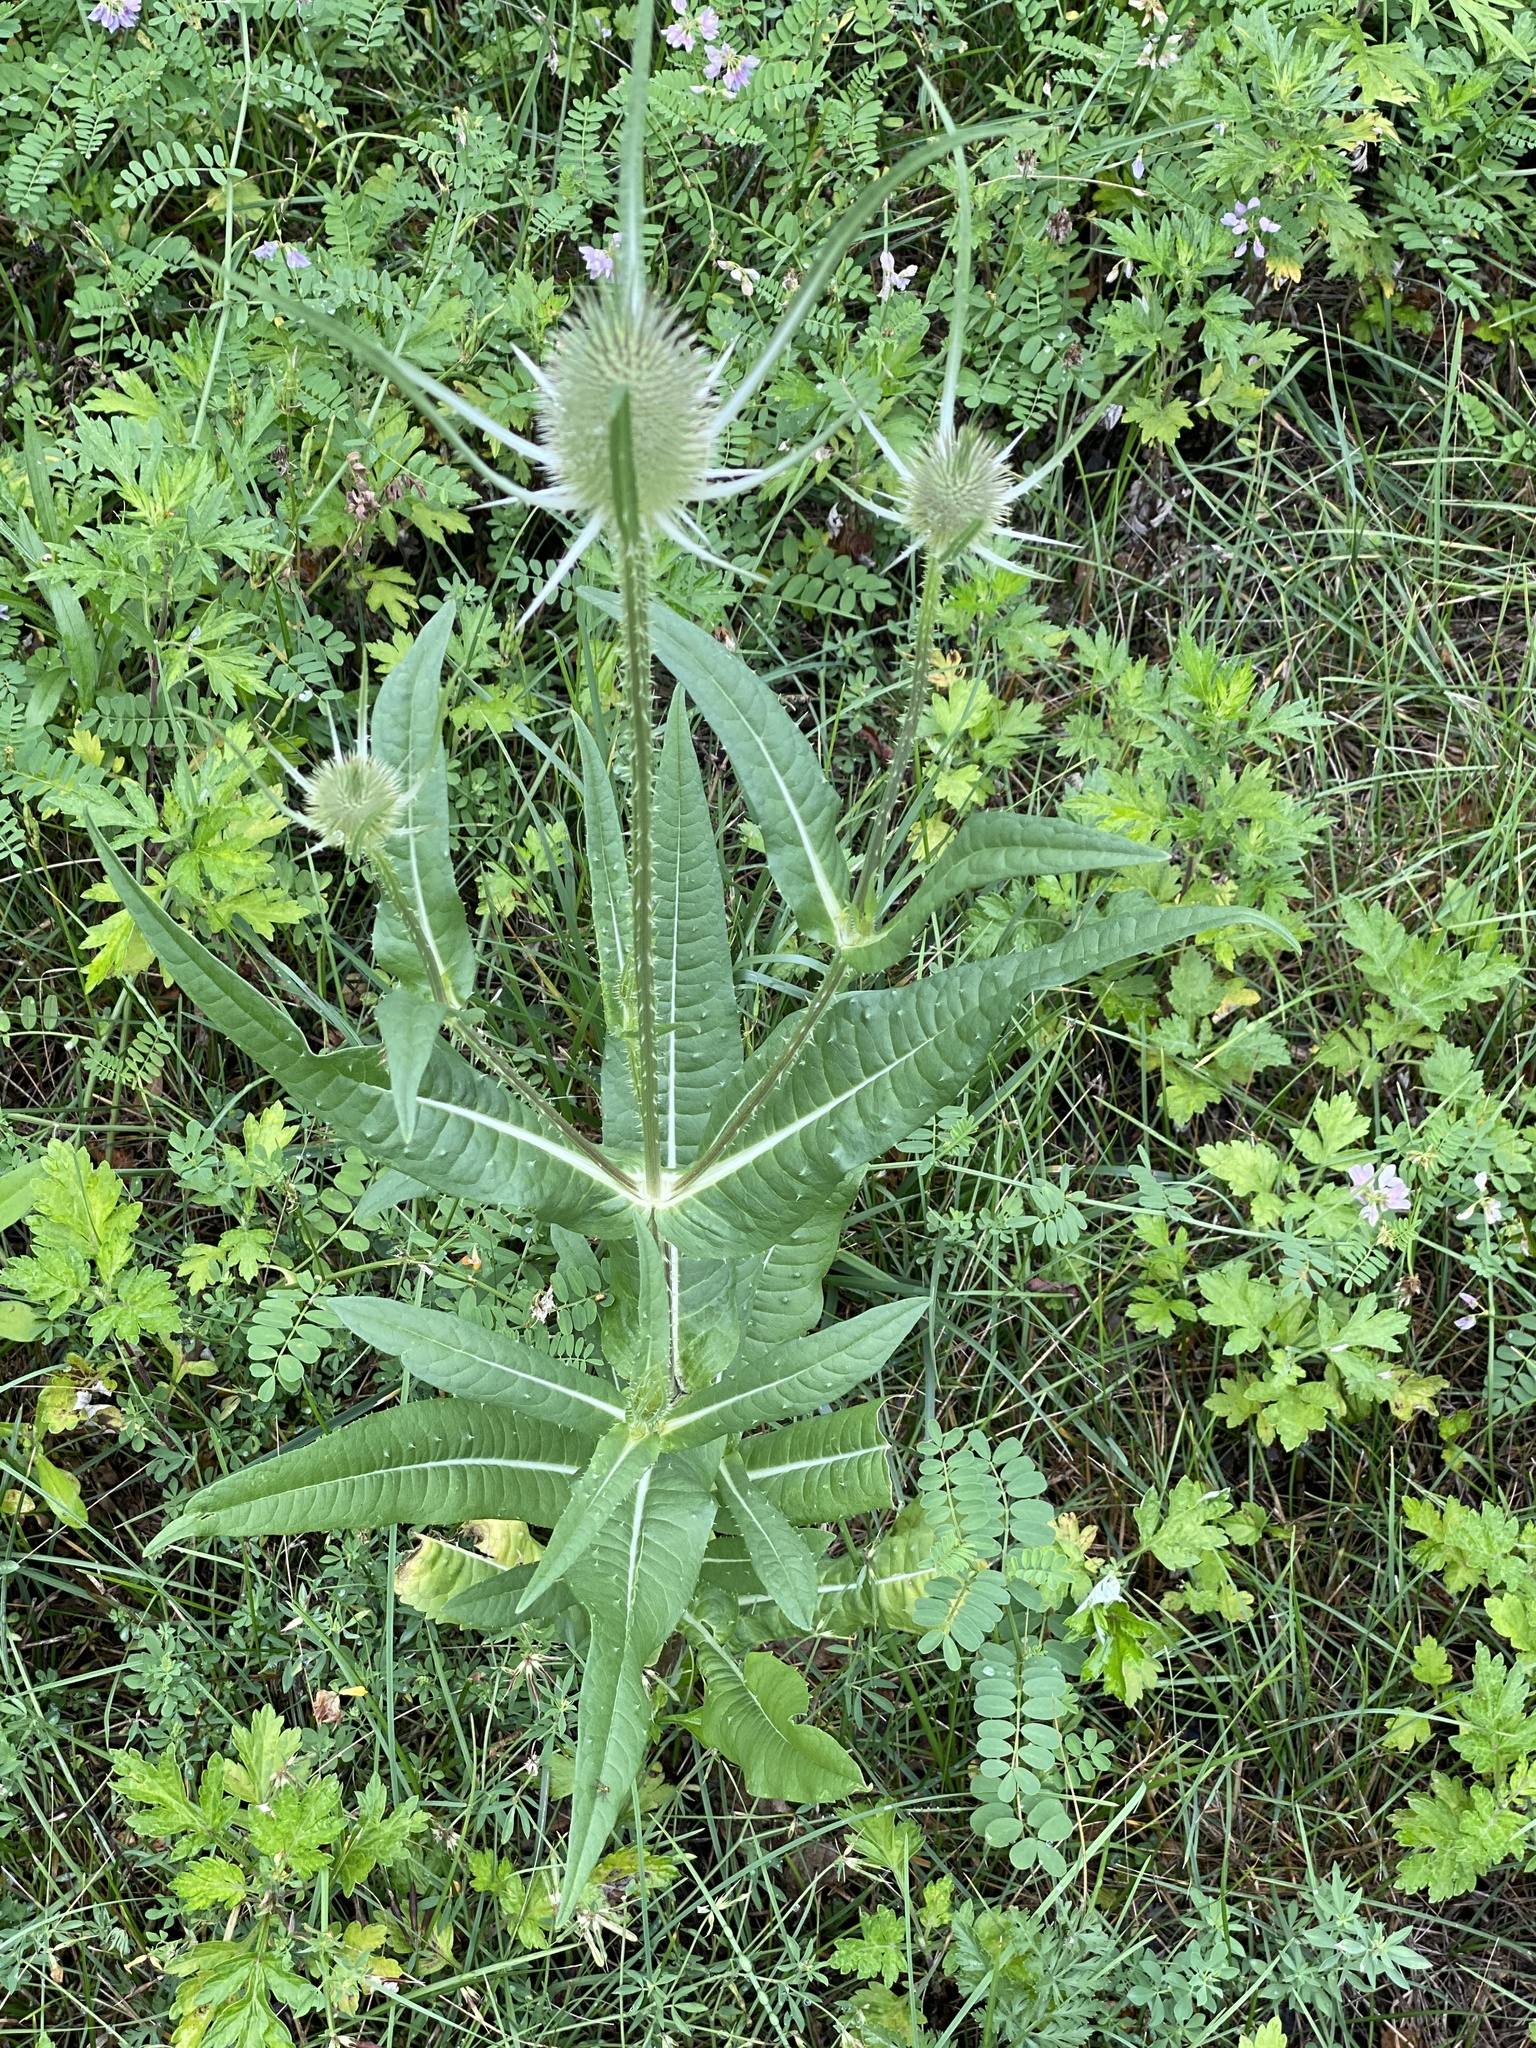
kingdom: Plantae
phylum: Tracheophyta
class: Magnoliopsida
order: Dipsacales
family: Caprifoliaceae
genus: Dipsacus
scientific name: Dipsacus fullonum
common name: Teasel
